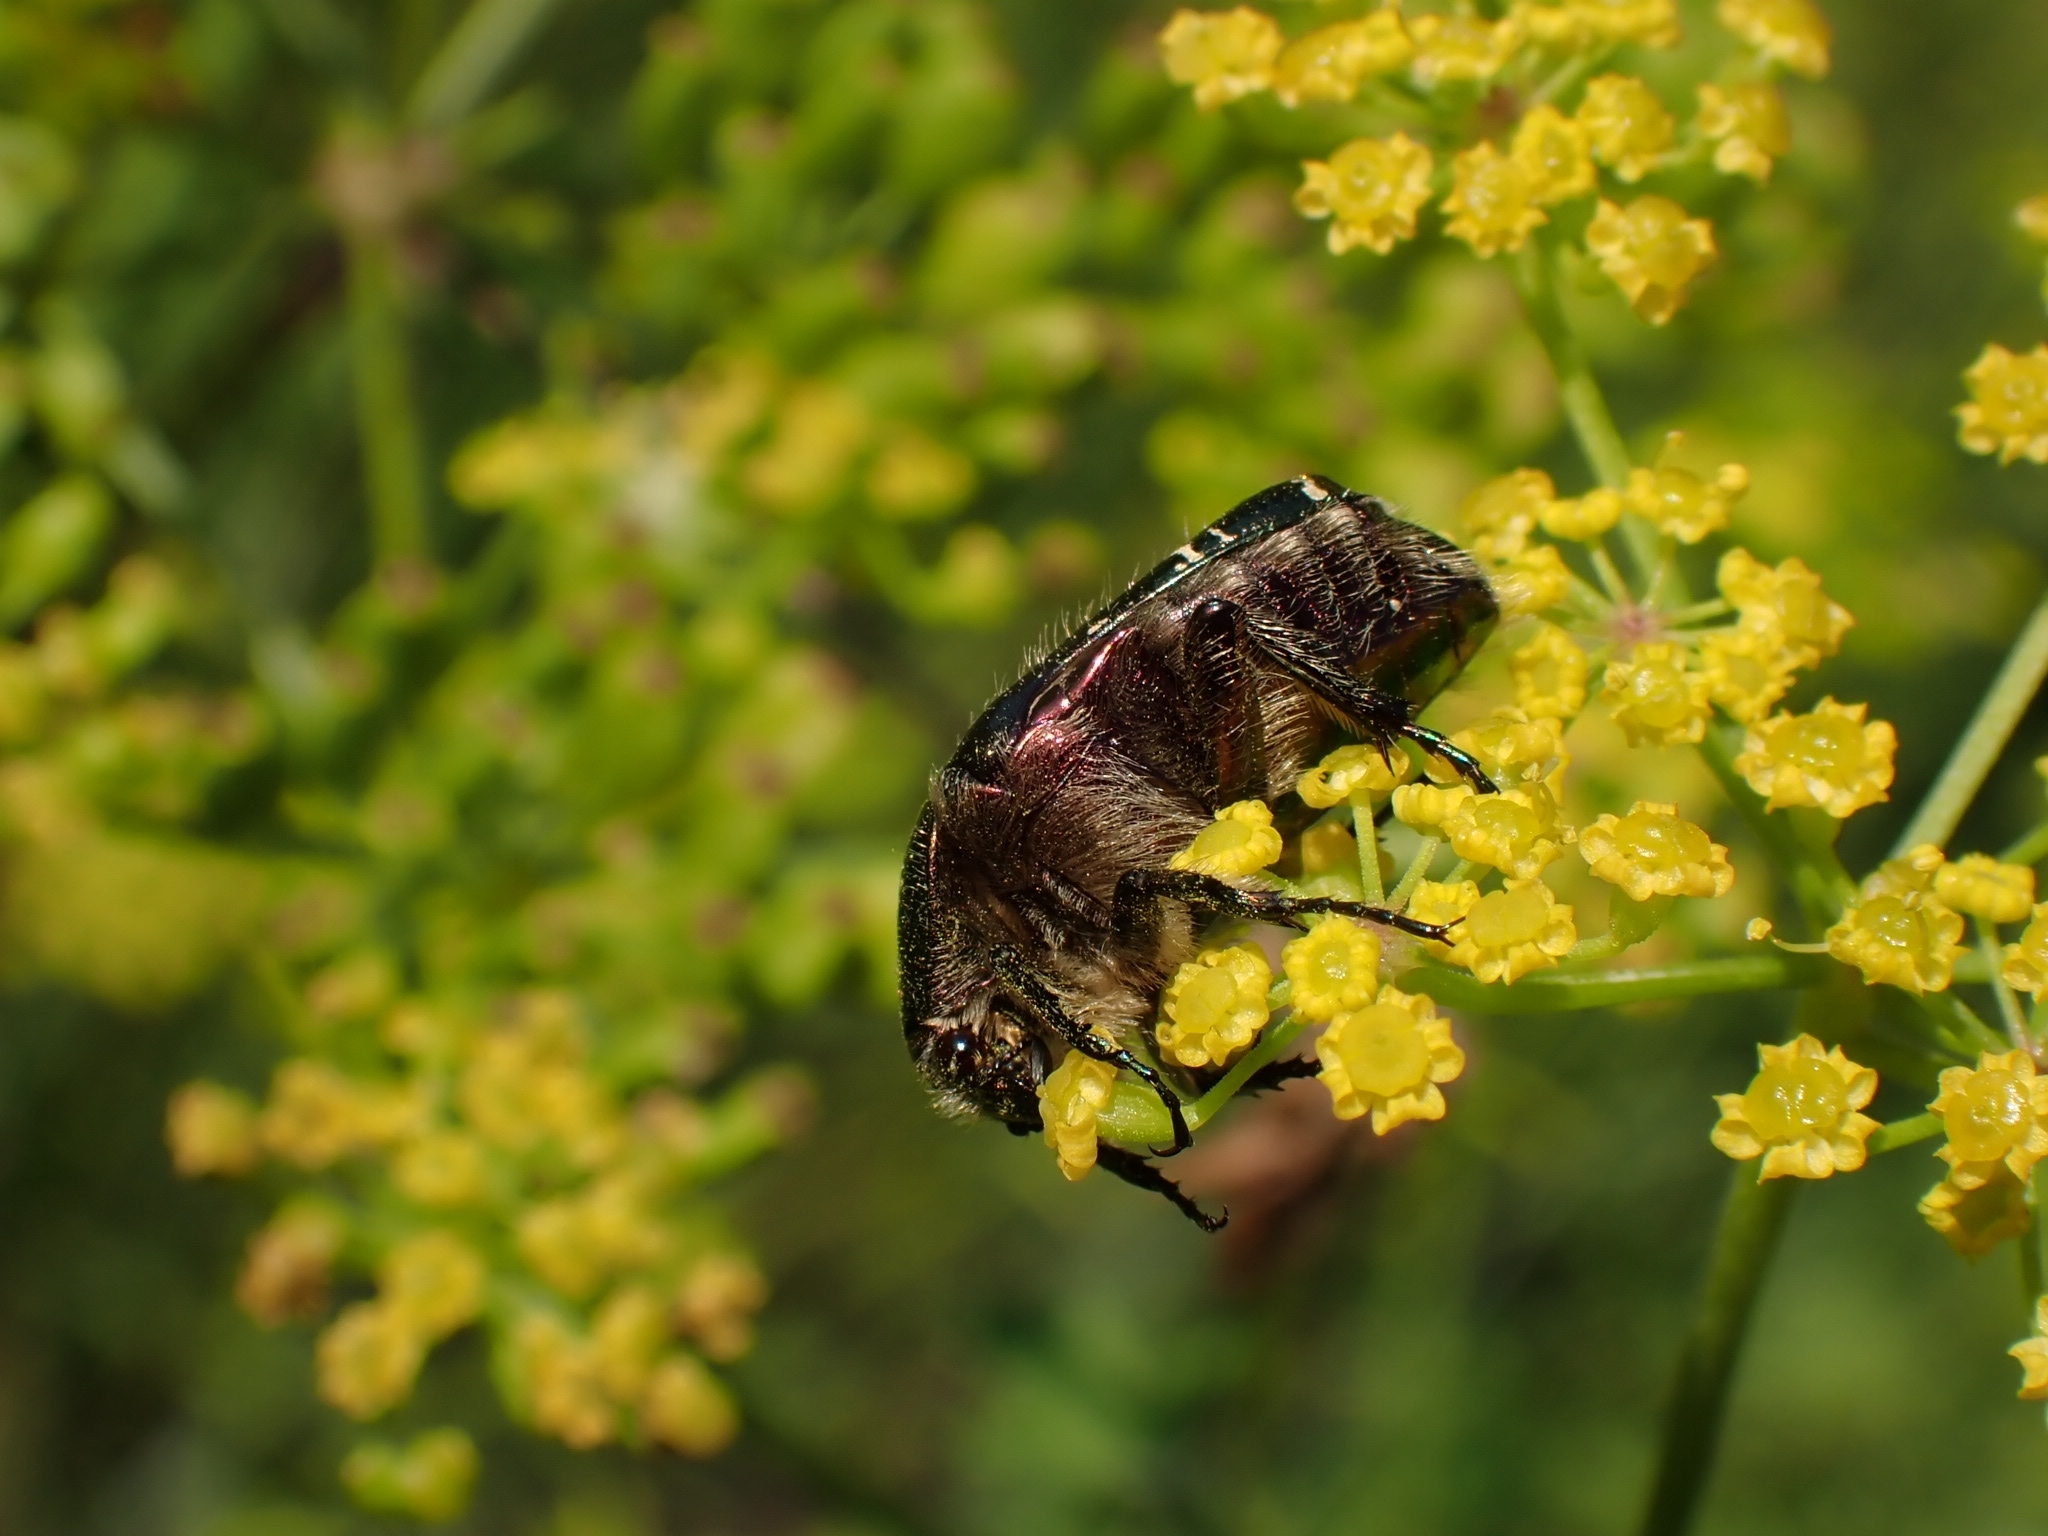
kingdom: Animalia
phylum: Arthropoda
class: Insecta
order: Coleoptera
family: Scarabaeidae
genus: Cetonia
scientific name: Cetonia aurata
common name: Rose chafer
